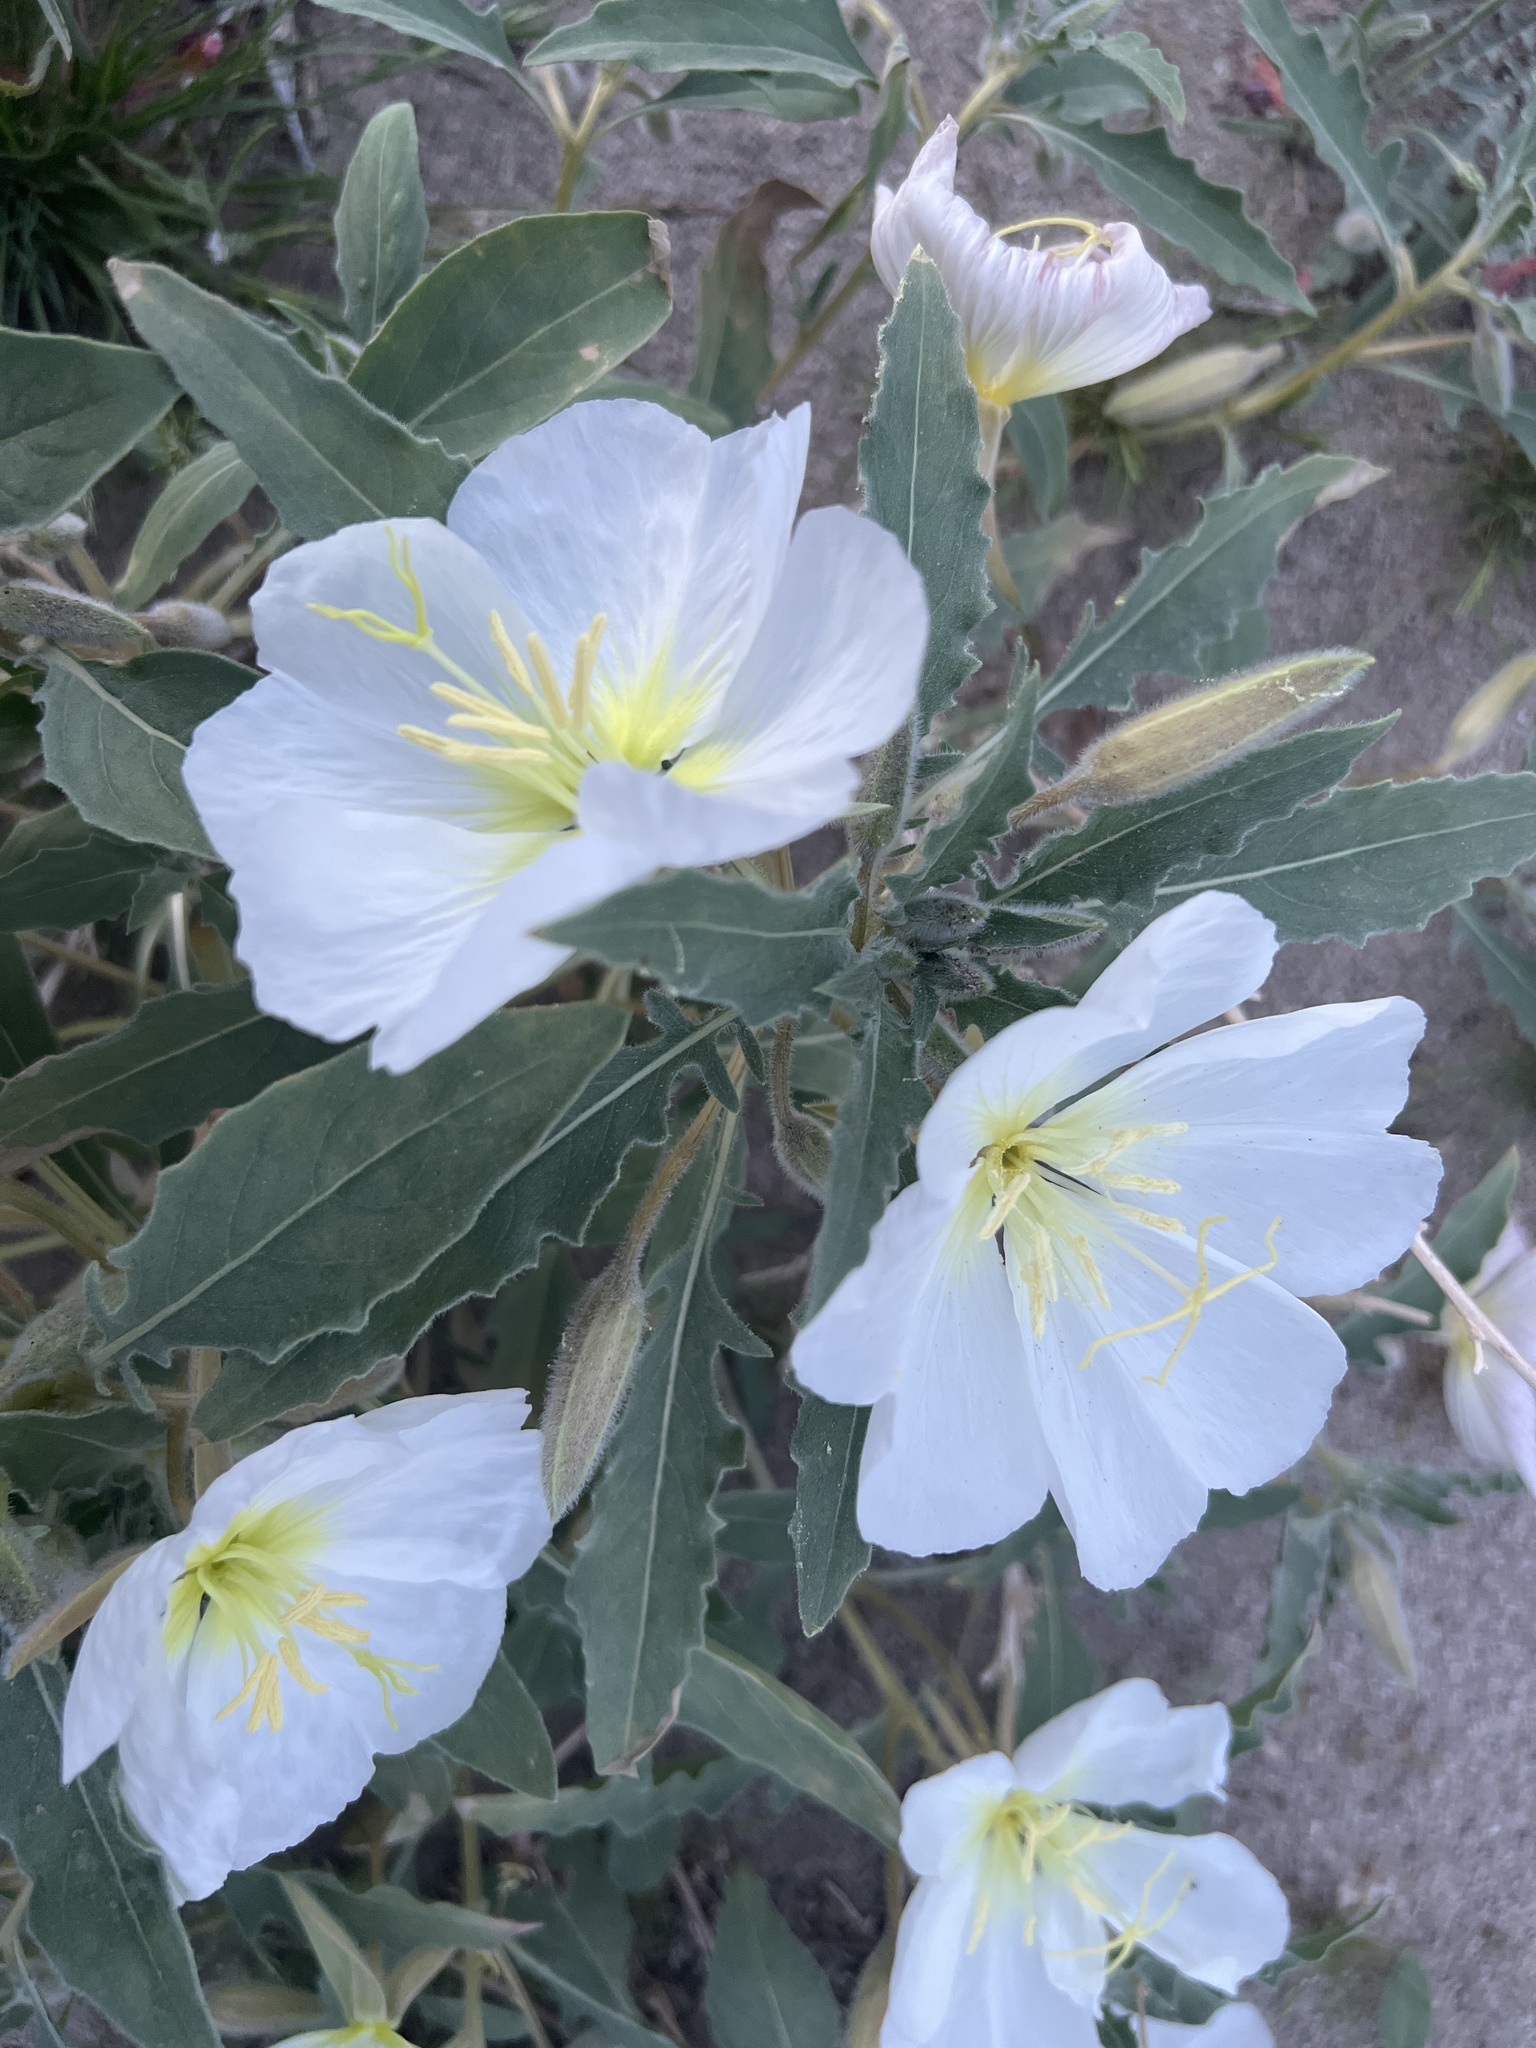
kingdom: Plantae
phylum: Tracheophyta
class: Magnoliopsida
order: Myrtales
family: Onagraceae
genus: Oenothera
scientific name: Oenothera deltoides
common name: Basket evening-primrose
